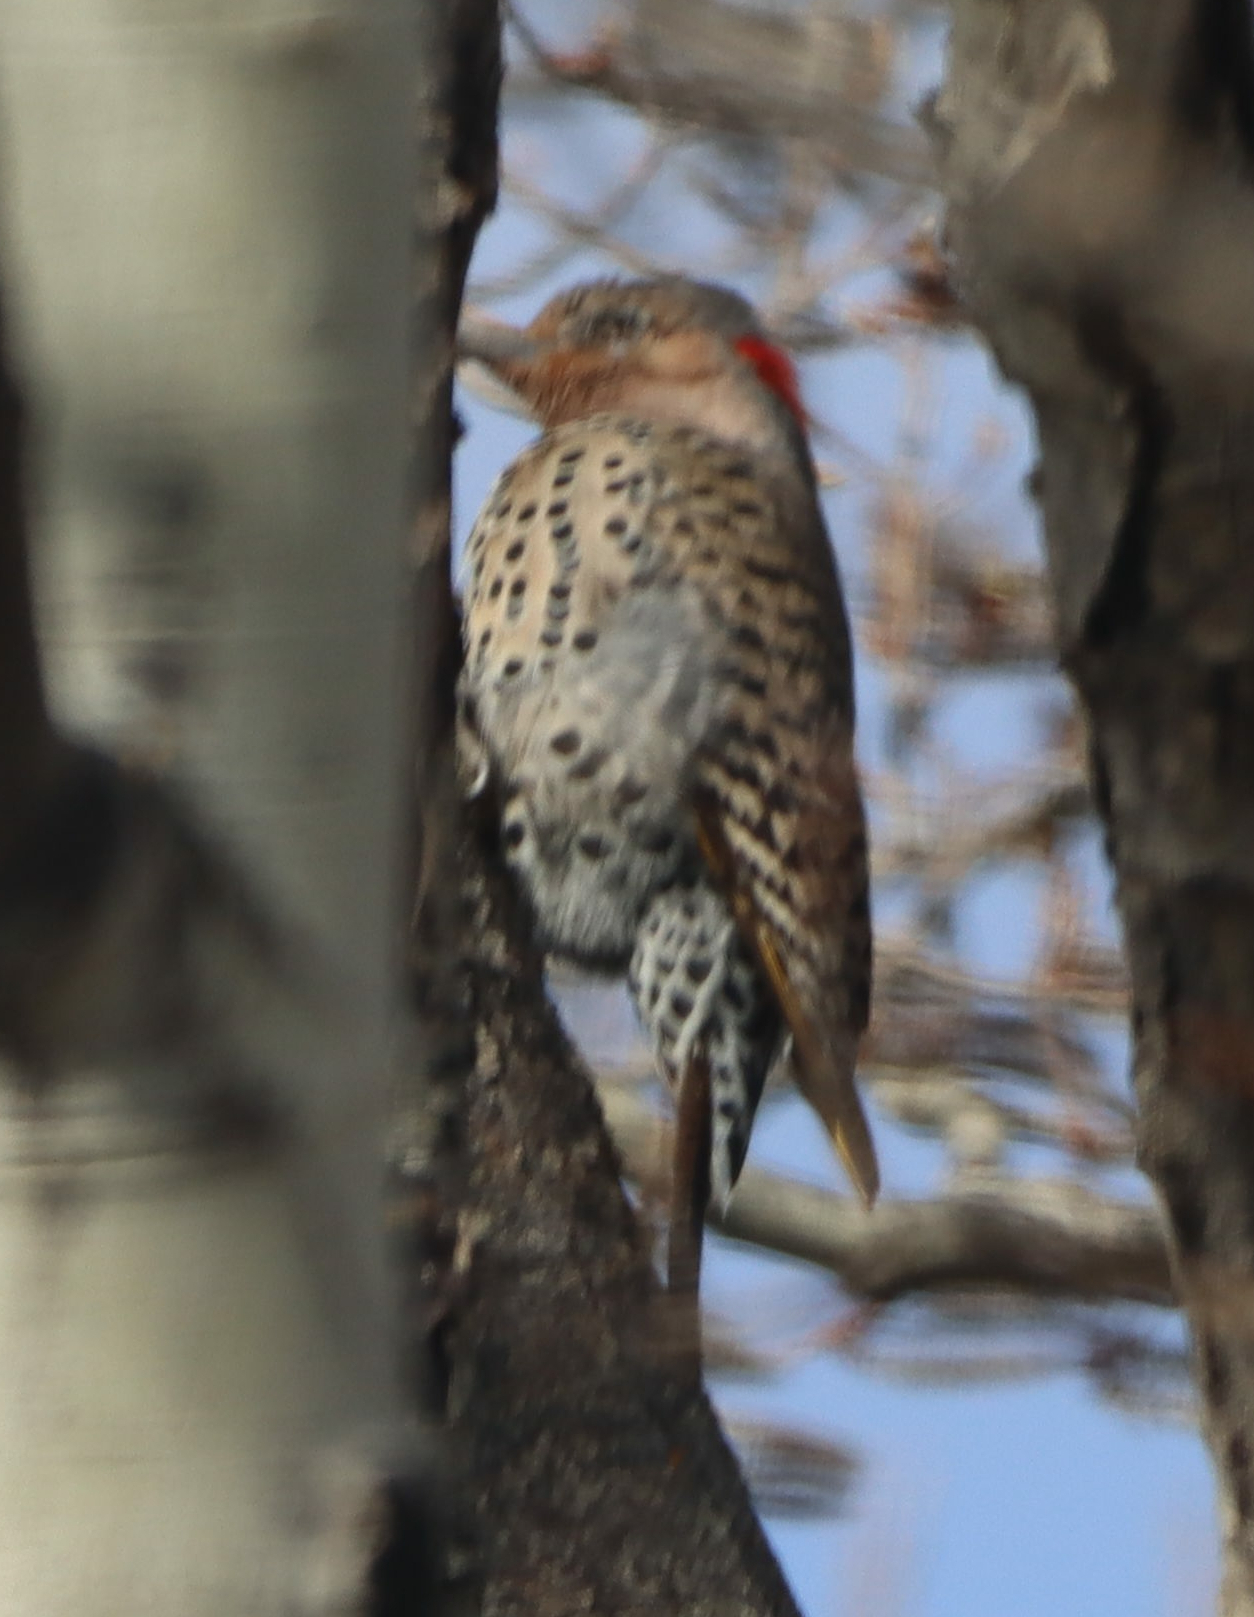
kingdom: Animalia
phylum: Chordata
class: Aves
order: Piciformes
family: Picidae
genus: Colaptes
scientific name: Colaptes auratus
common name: Northern flicker
